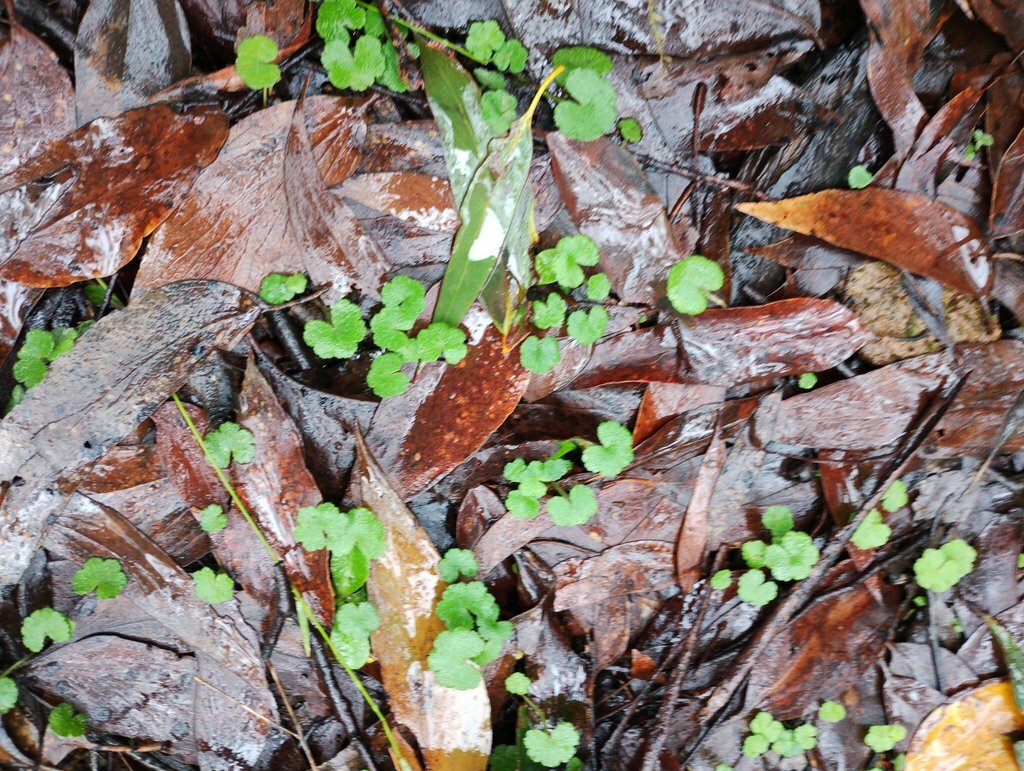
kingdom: Plantae
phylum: Tracheophyta
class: Magnoliopsida
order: Apiales
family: Araliaceae
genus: Hydrocotyle
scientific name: Hydrocotyle hirta
